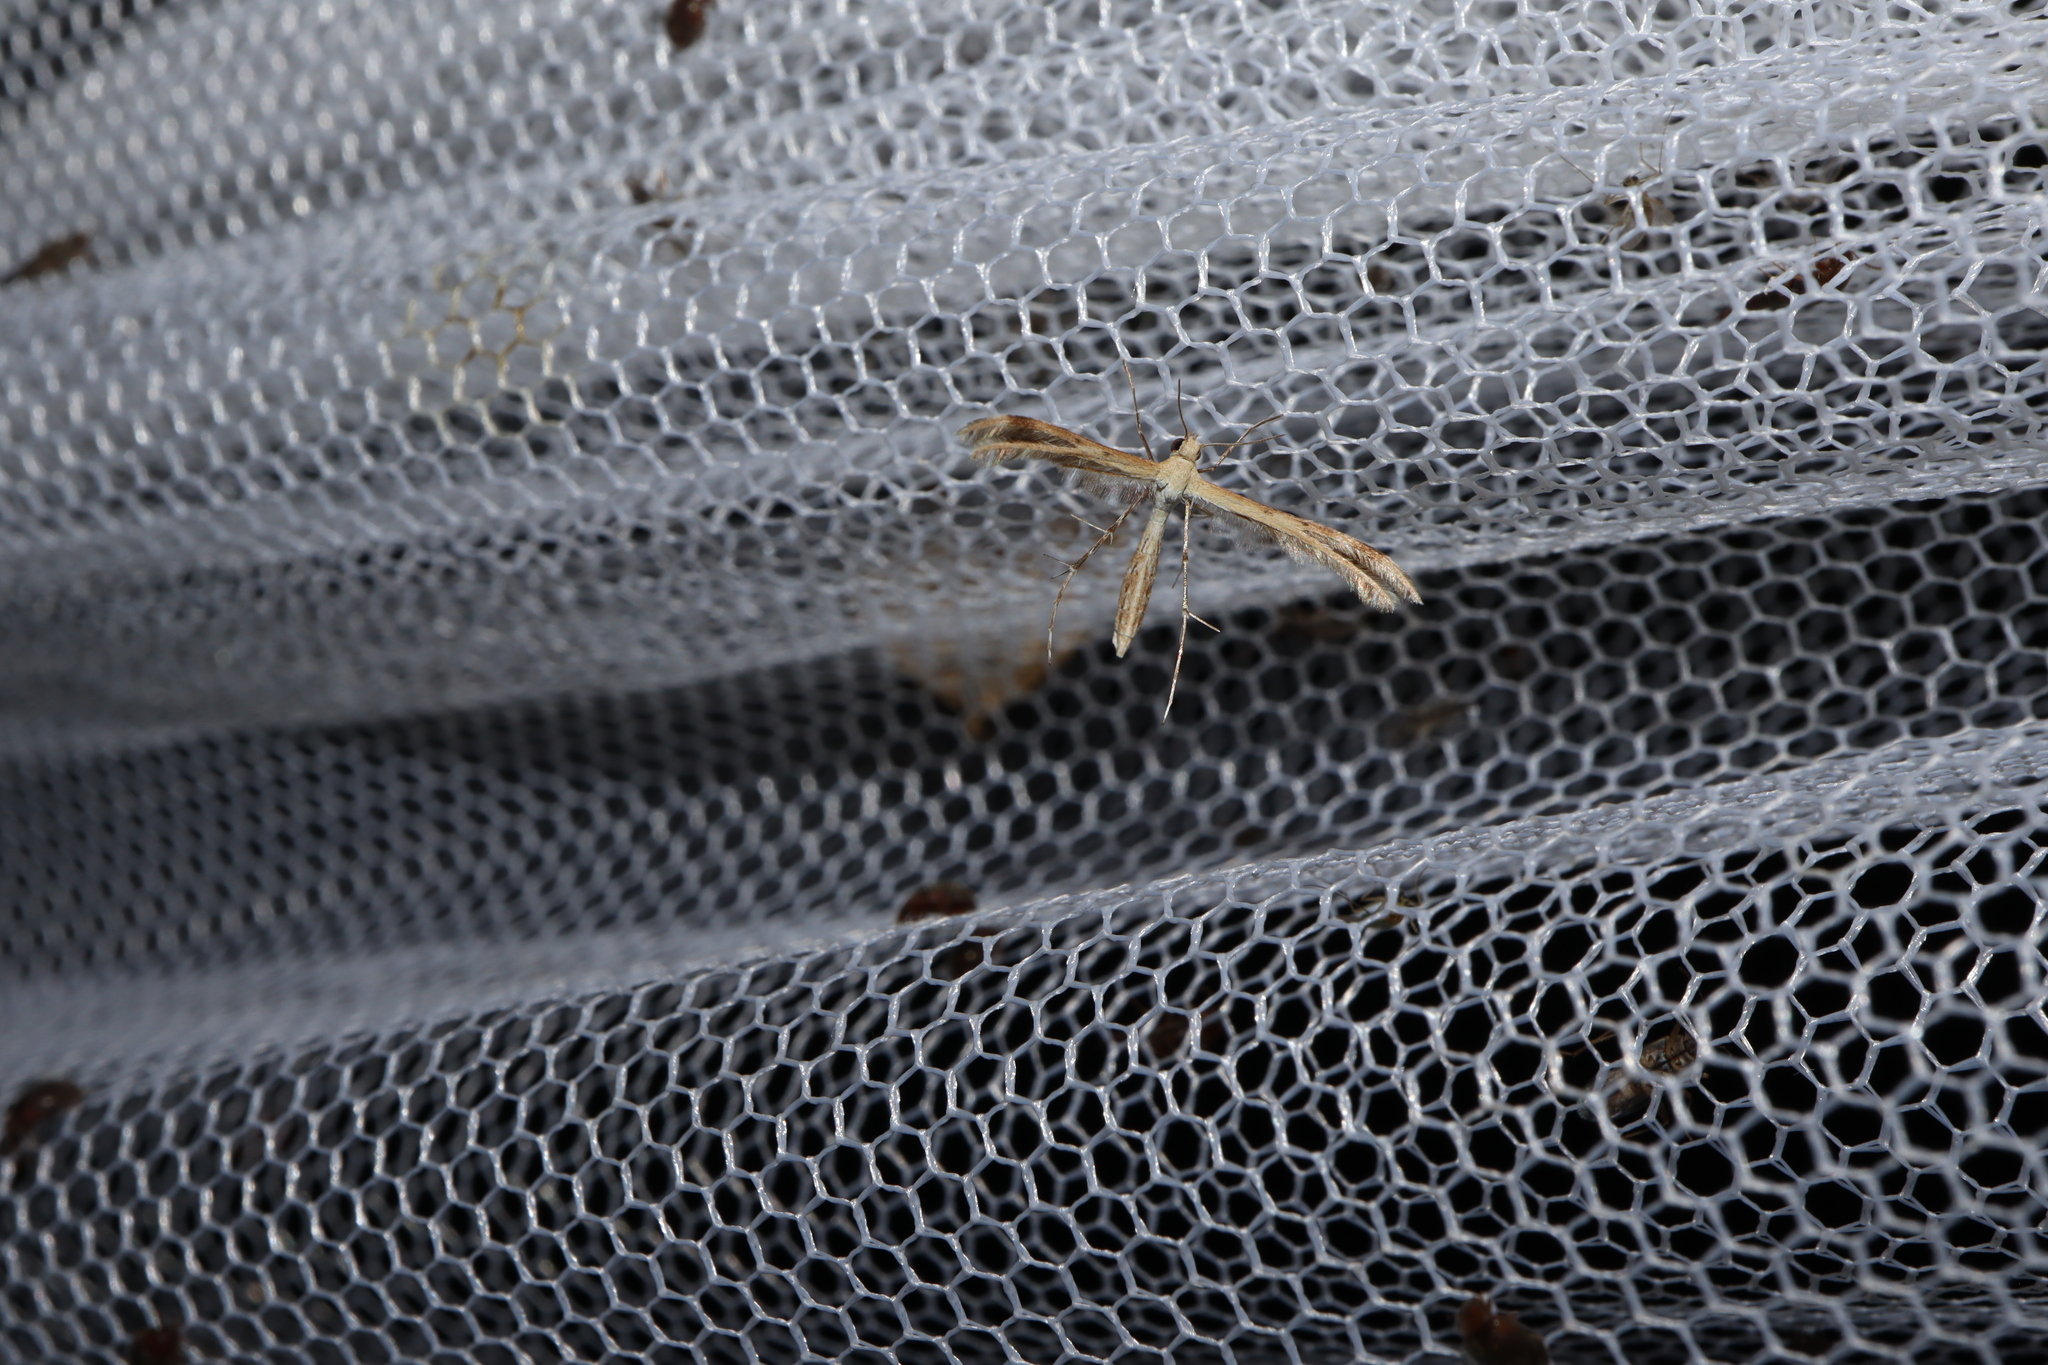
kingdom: Animalia
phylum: Arthropoda
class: Insecta
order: Lepidoptera
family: Pterophoridae
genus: Megalorhipida
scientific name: Megalorhipida leucodactylus
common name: Plume moth
